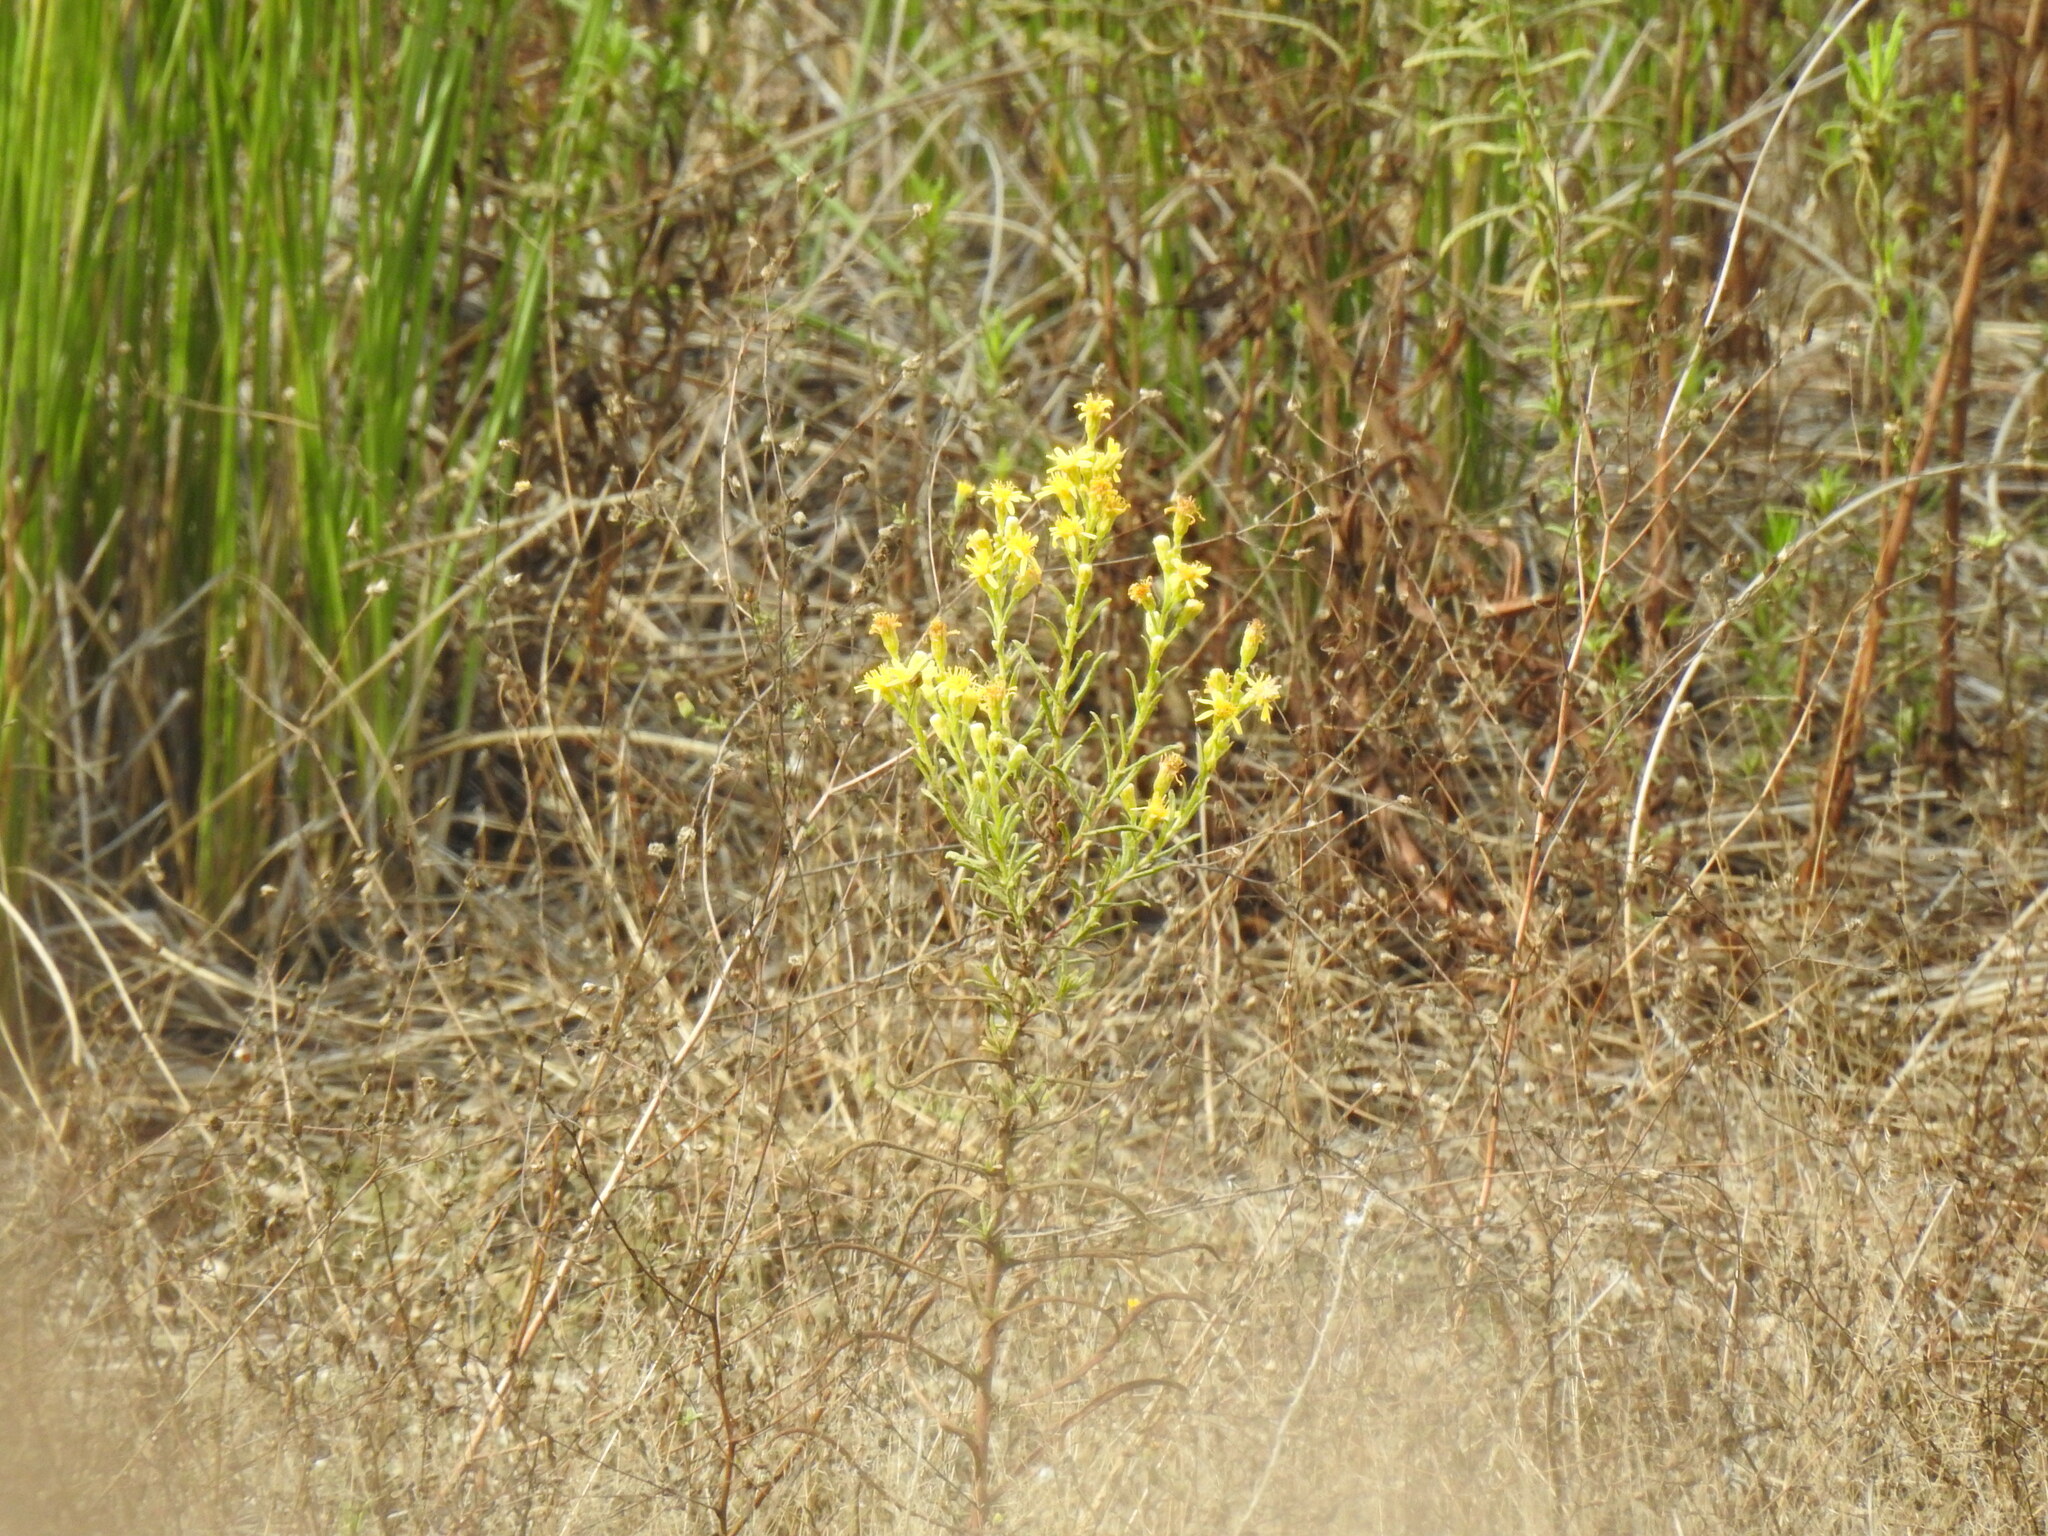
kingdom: Plantae
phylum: Tracheophyta
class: Magnoliopsida
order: Asterales
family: Asteraceae
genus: Dittrichia
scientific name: Dittrichia viscosa
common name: Woody fleabane
